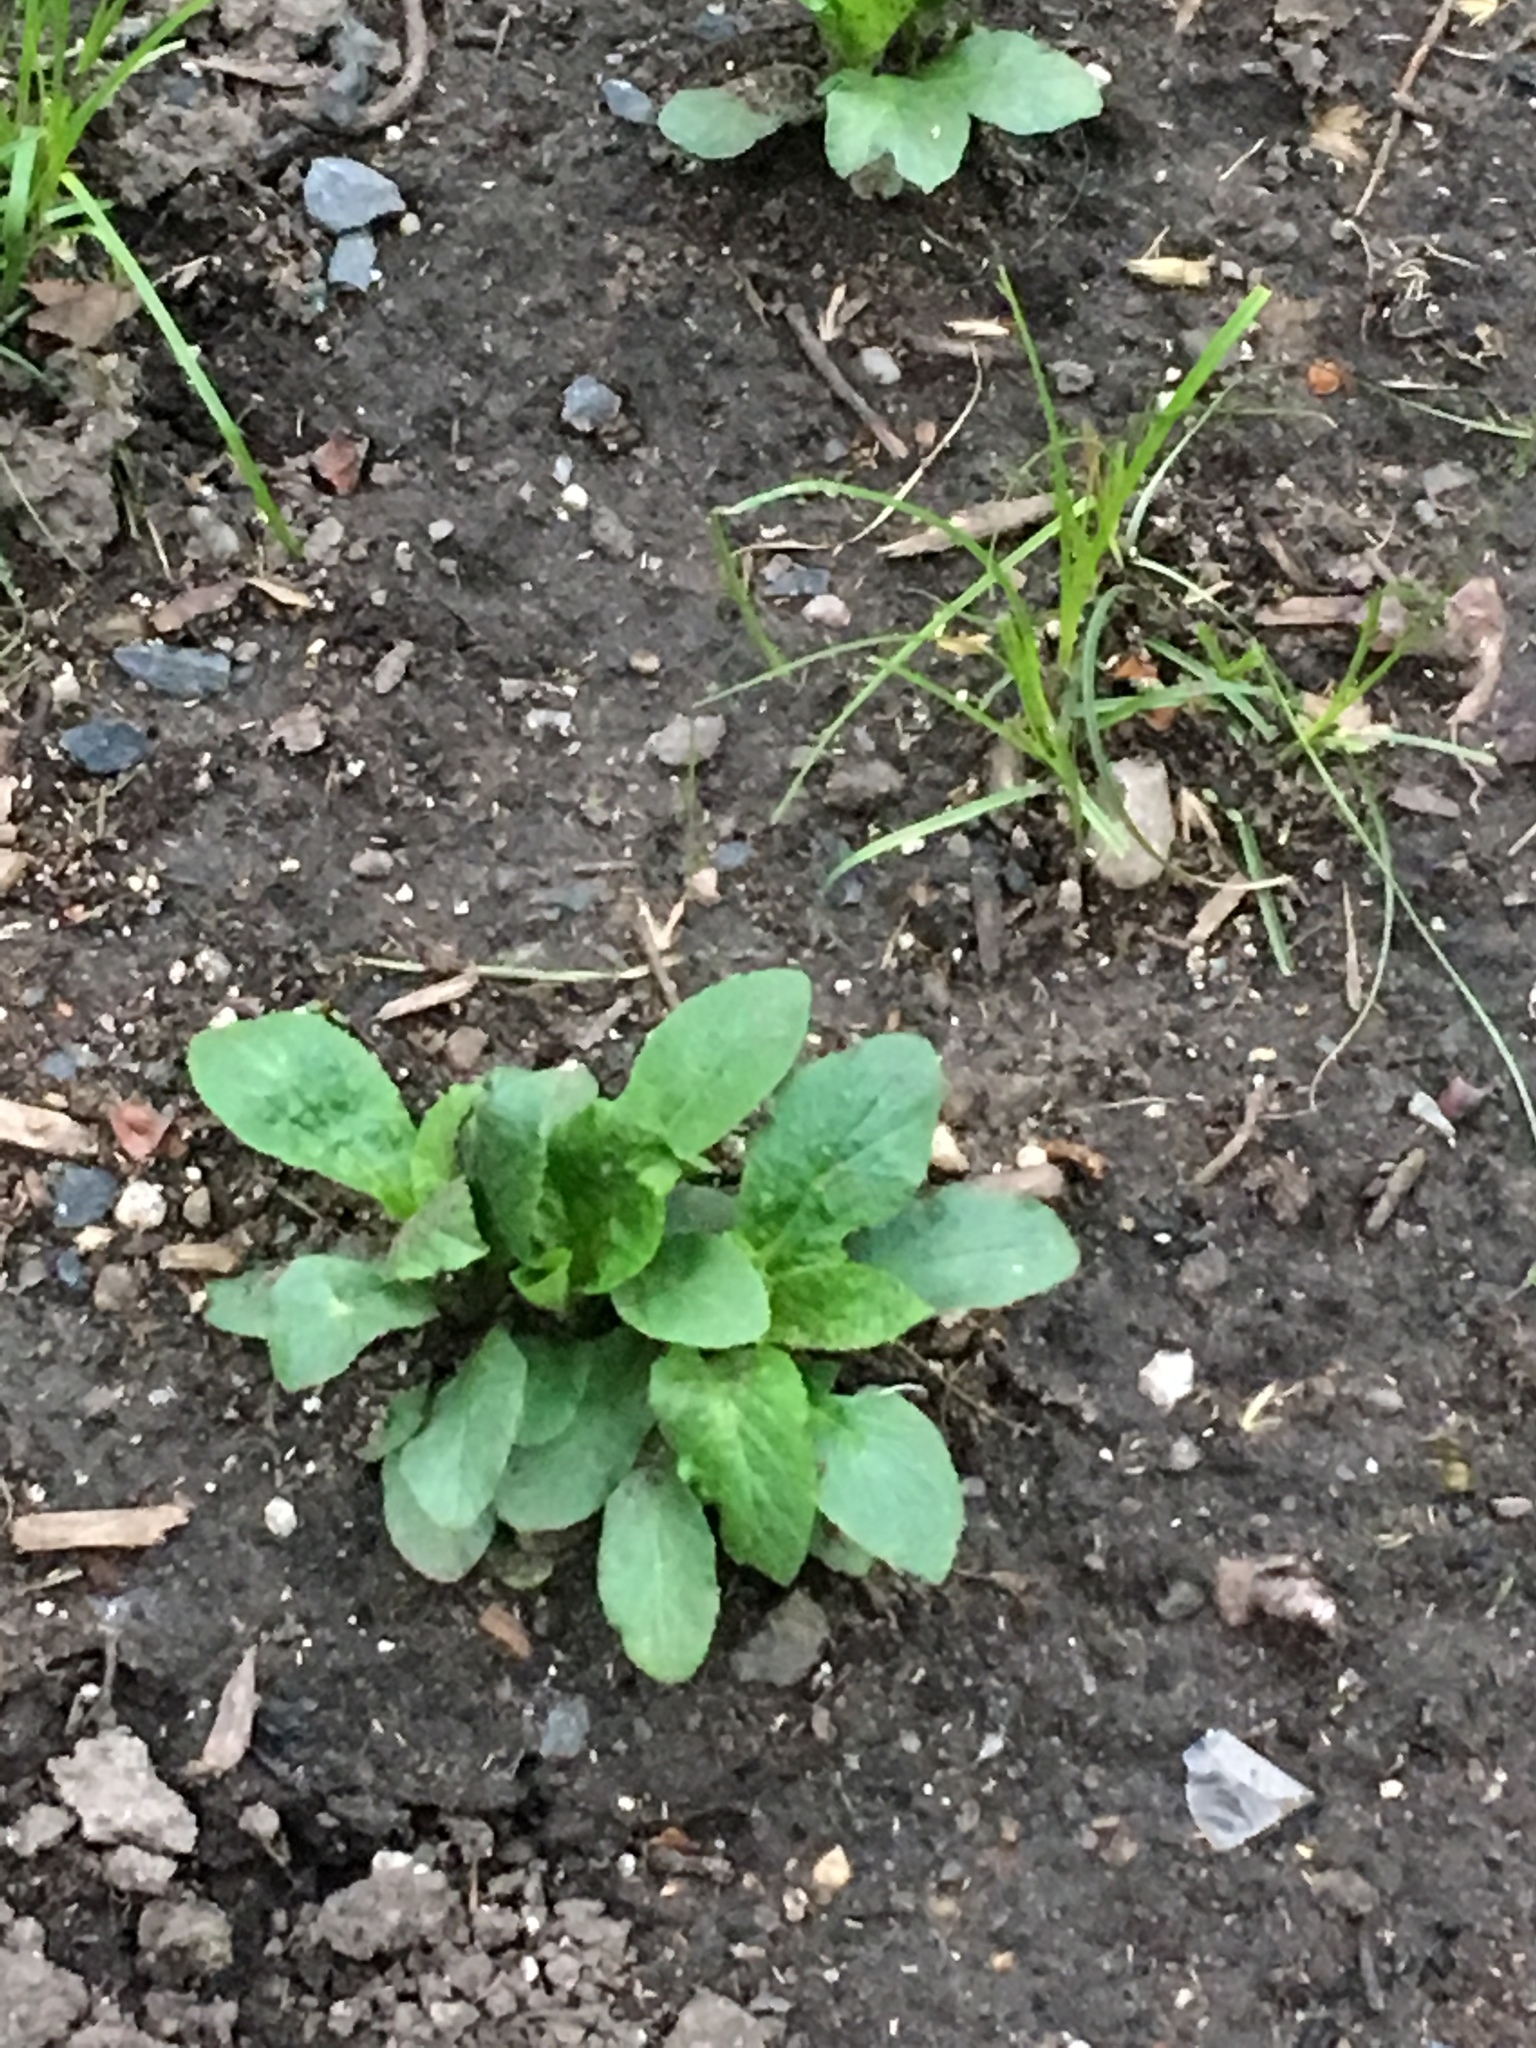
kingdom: Plantae
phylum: Tracheophyta
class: Magnoliopsida
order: Asterales
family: Campanulaceae
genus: Lobelia
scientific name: Lobelia siphilitica
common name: Great lobelia
